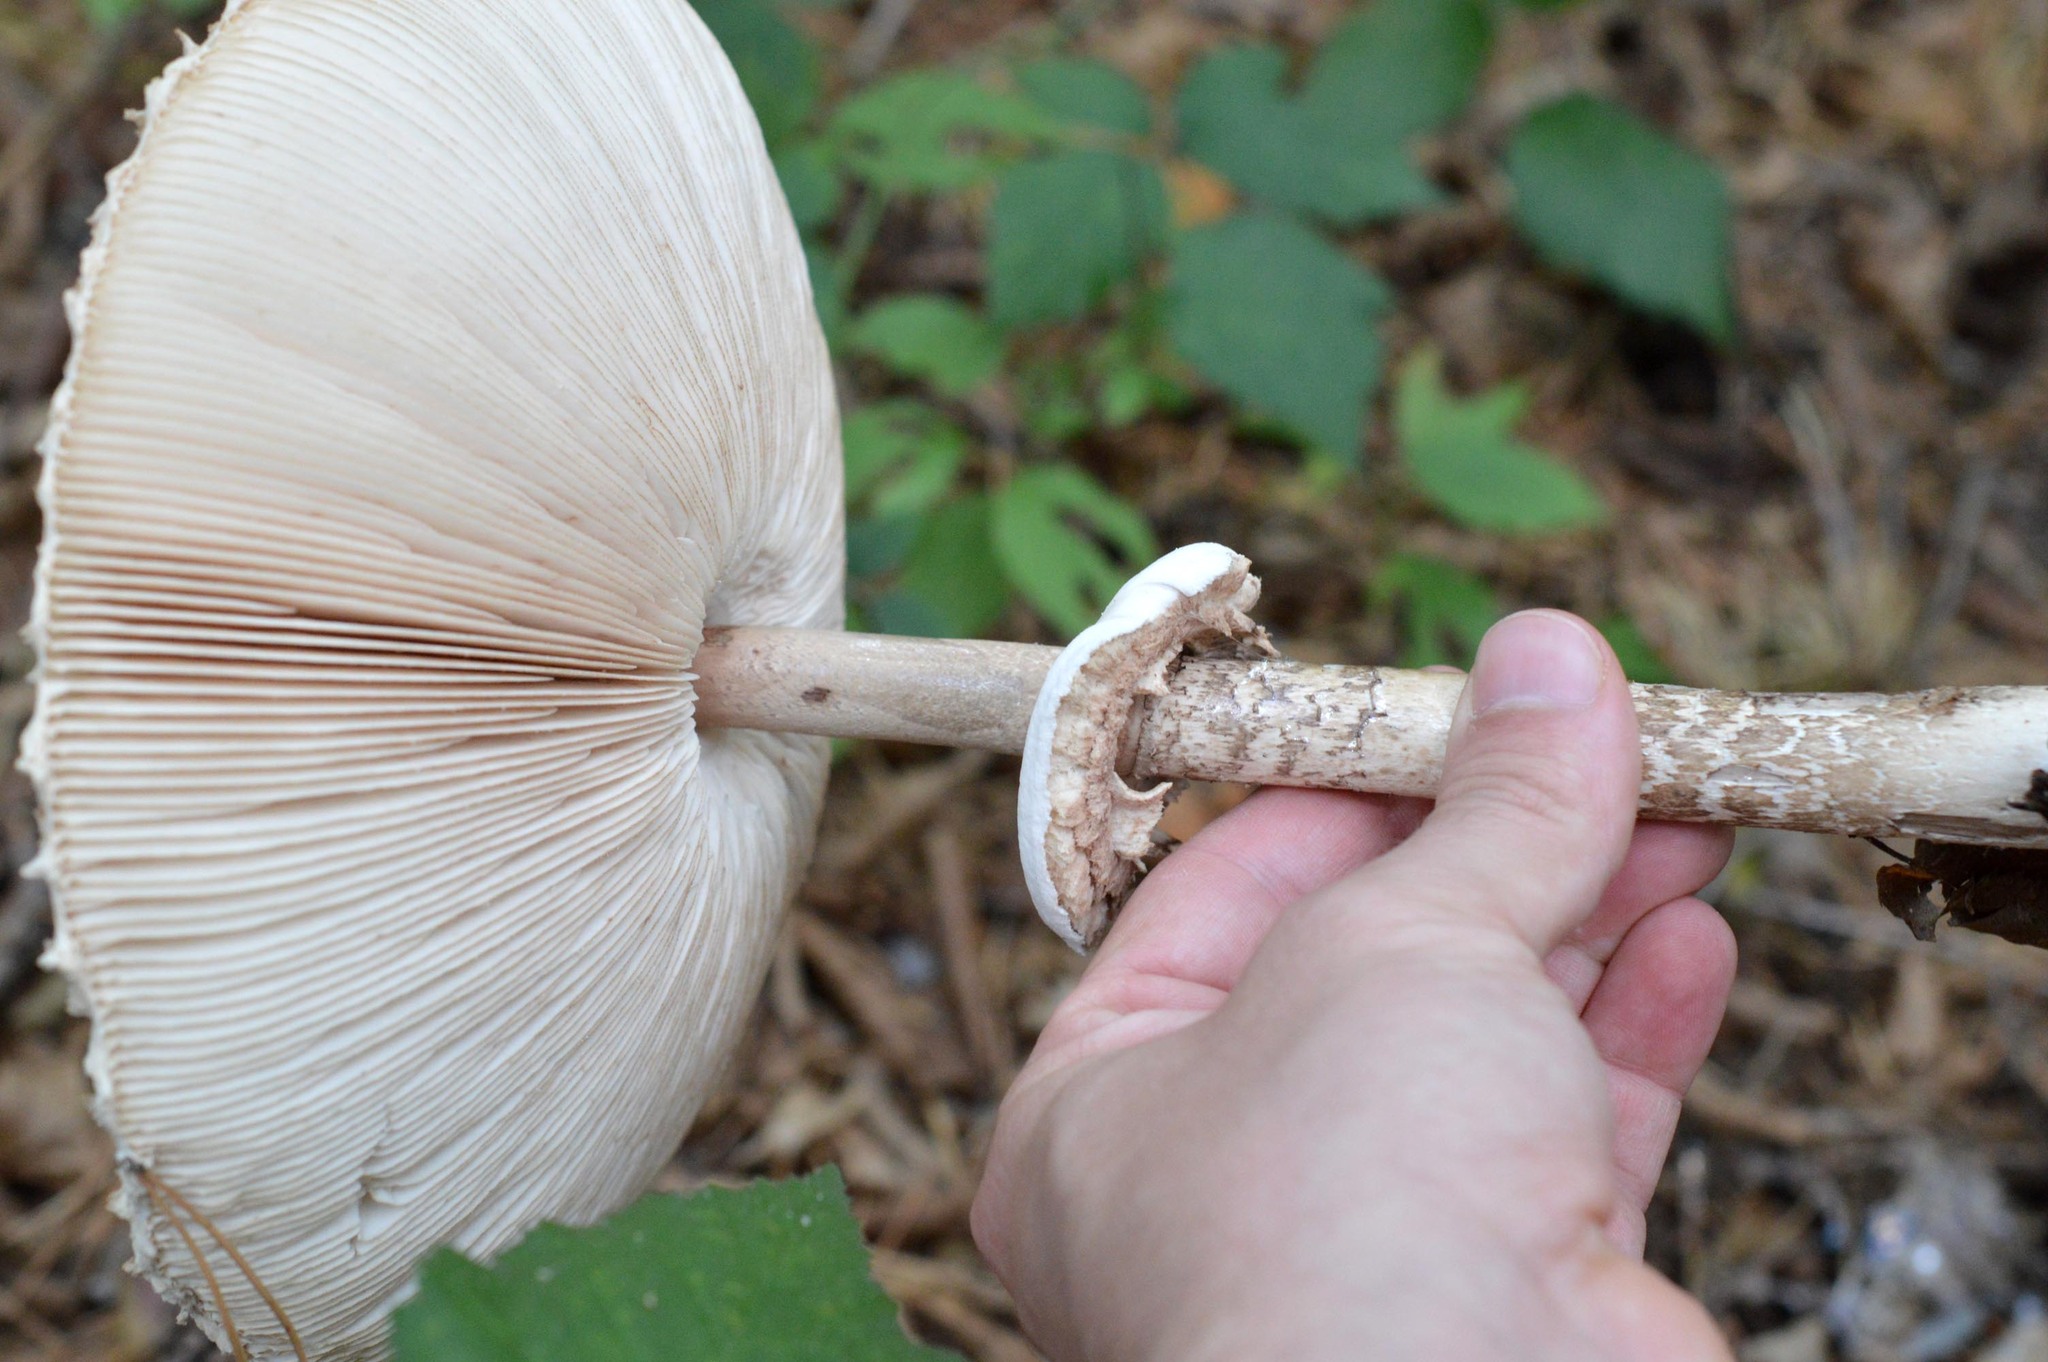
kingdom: Fungi
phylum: Basidiomycota
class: Agaricomycetes
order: Agaricales
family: Agaricaceae
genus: Macrolepiota
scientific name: Macrolepiota procera
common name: Parasol
